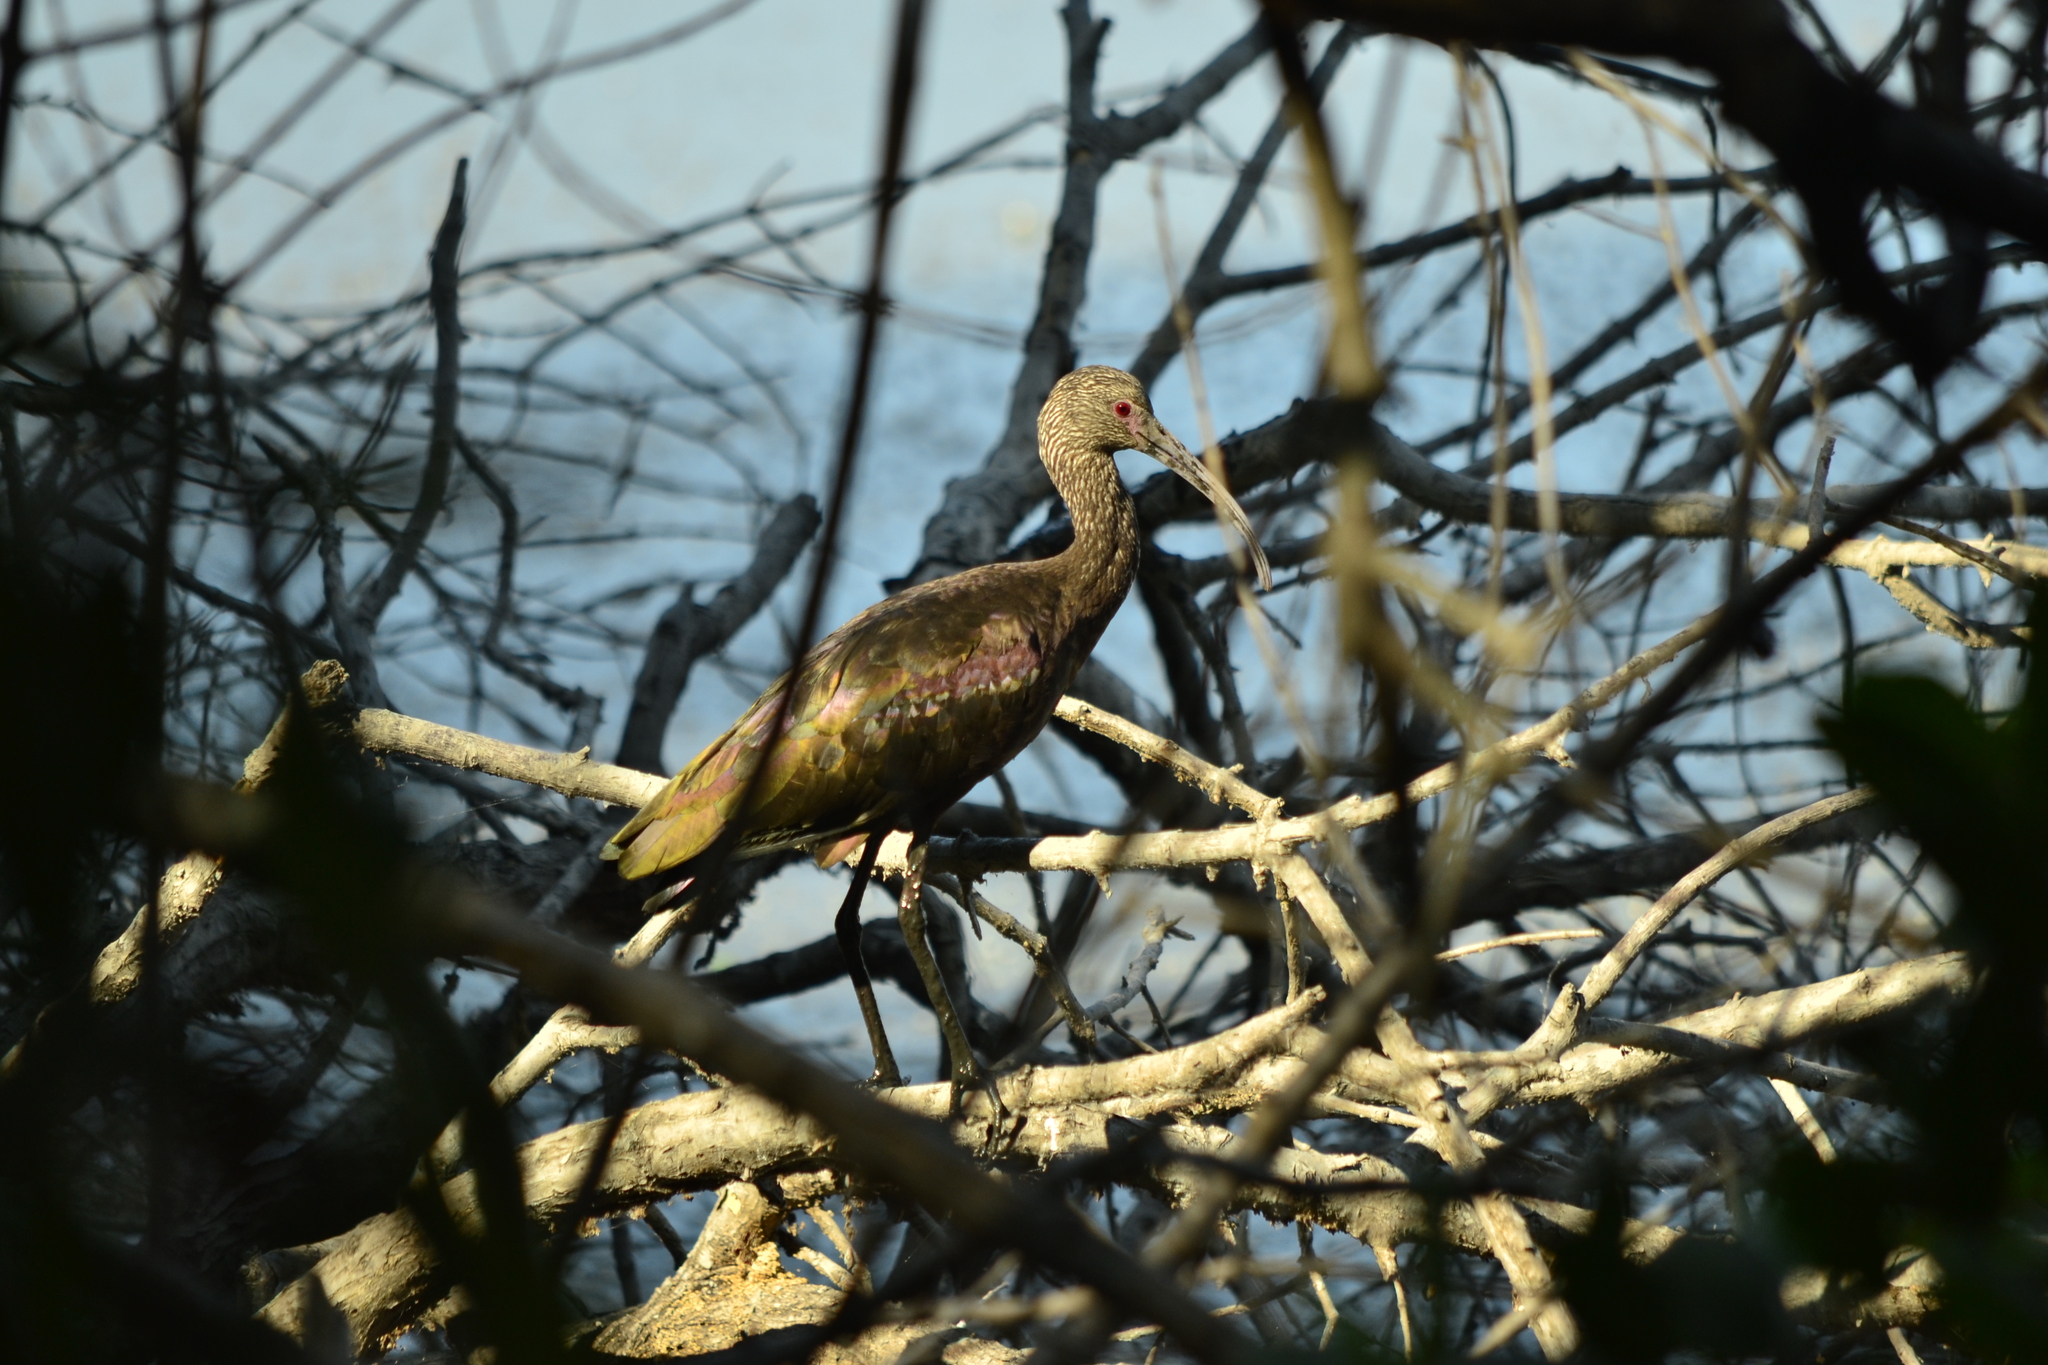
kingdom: Animalia
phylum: Chordata
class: Aves
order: Pelecaniformes
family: Threskiornithidae
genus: Plegadis
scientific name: Plegadis chihi
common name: White-faced ibis
